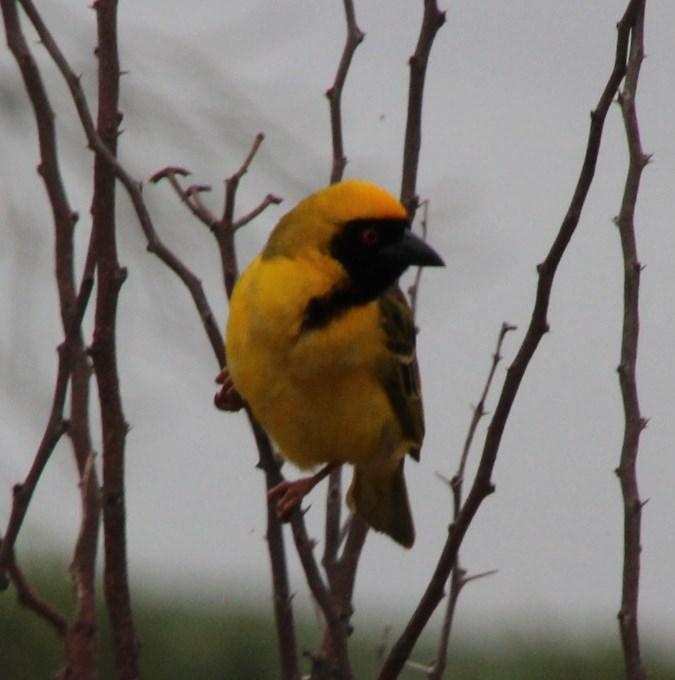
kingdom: Animalia
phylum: Chordata
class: Aves
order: Passeriformes
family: Ploceidae
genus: Ploceus
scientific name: Ploceus velatus
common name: Southern masked weaver
